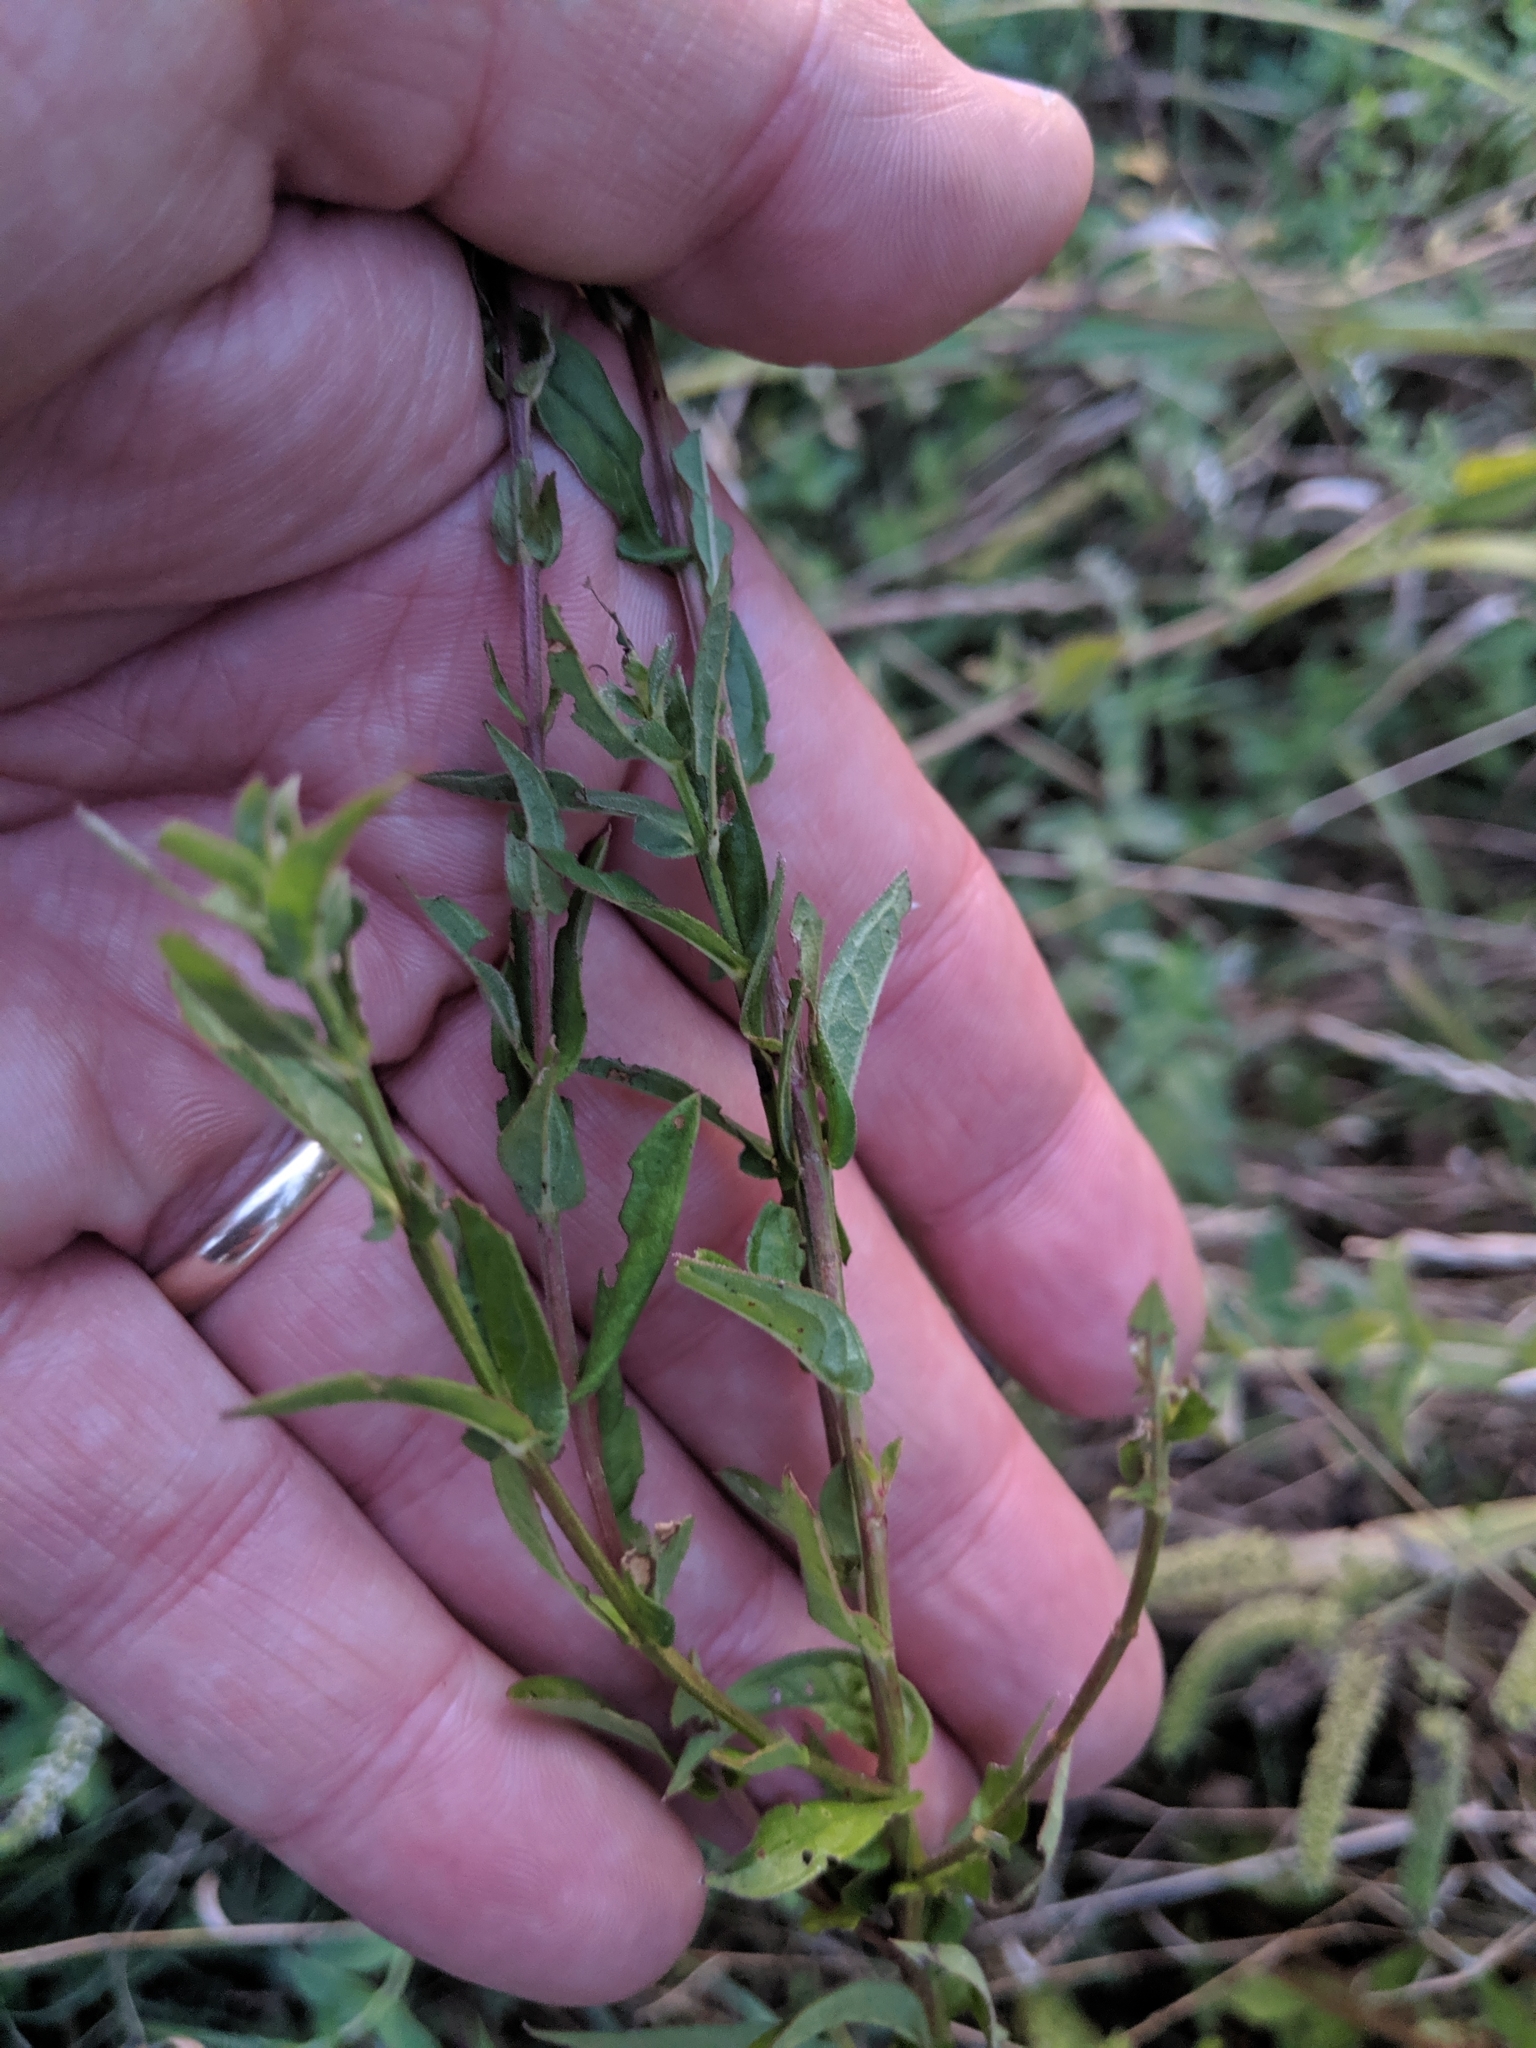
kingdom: Plantae
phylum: Tracheophyta
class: Magnoliopsida
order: Myrtales
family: Lythraceae
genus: Lythrum
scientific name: Lythrum salicaria
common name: Purple loosestrife
